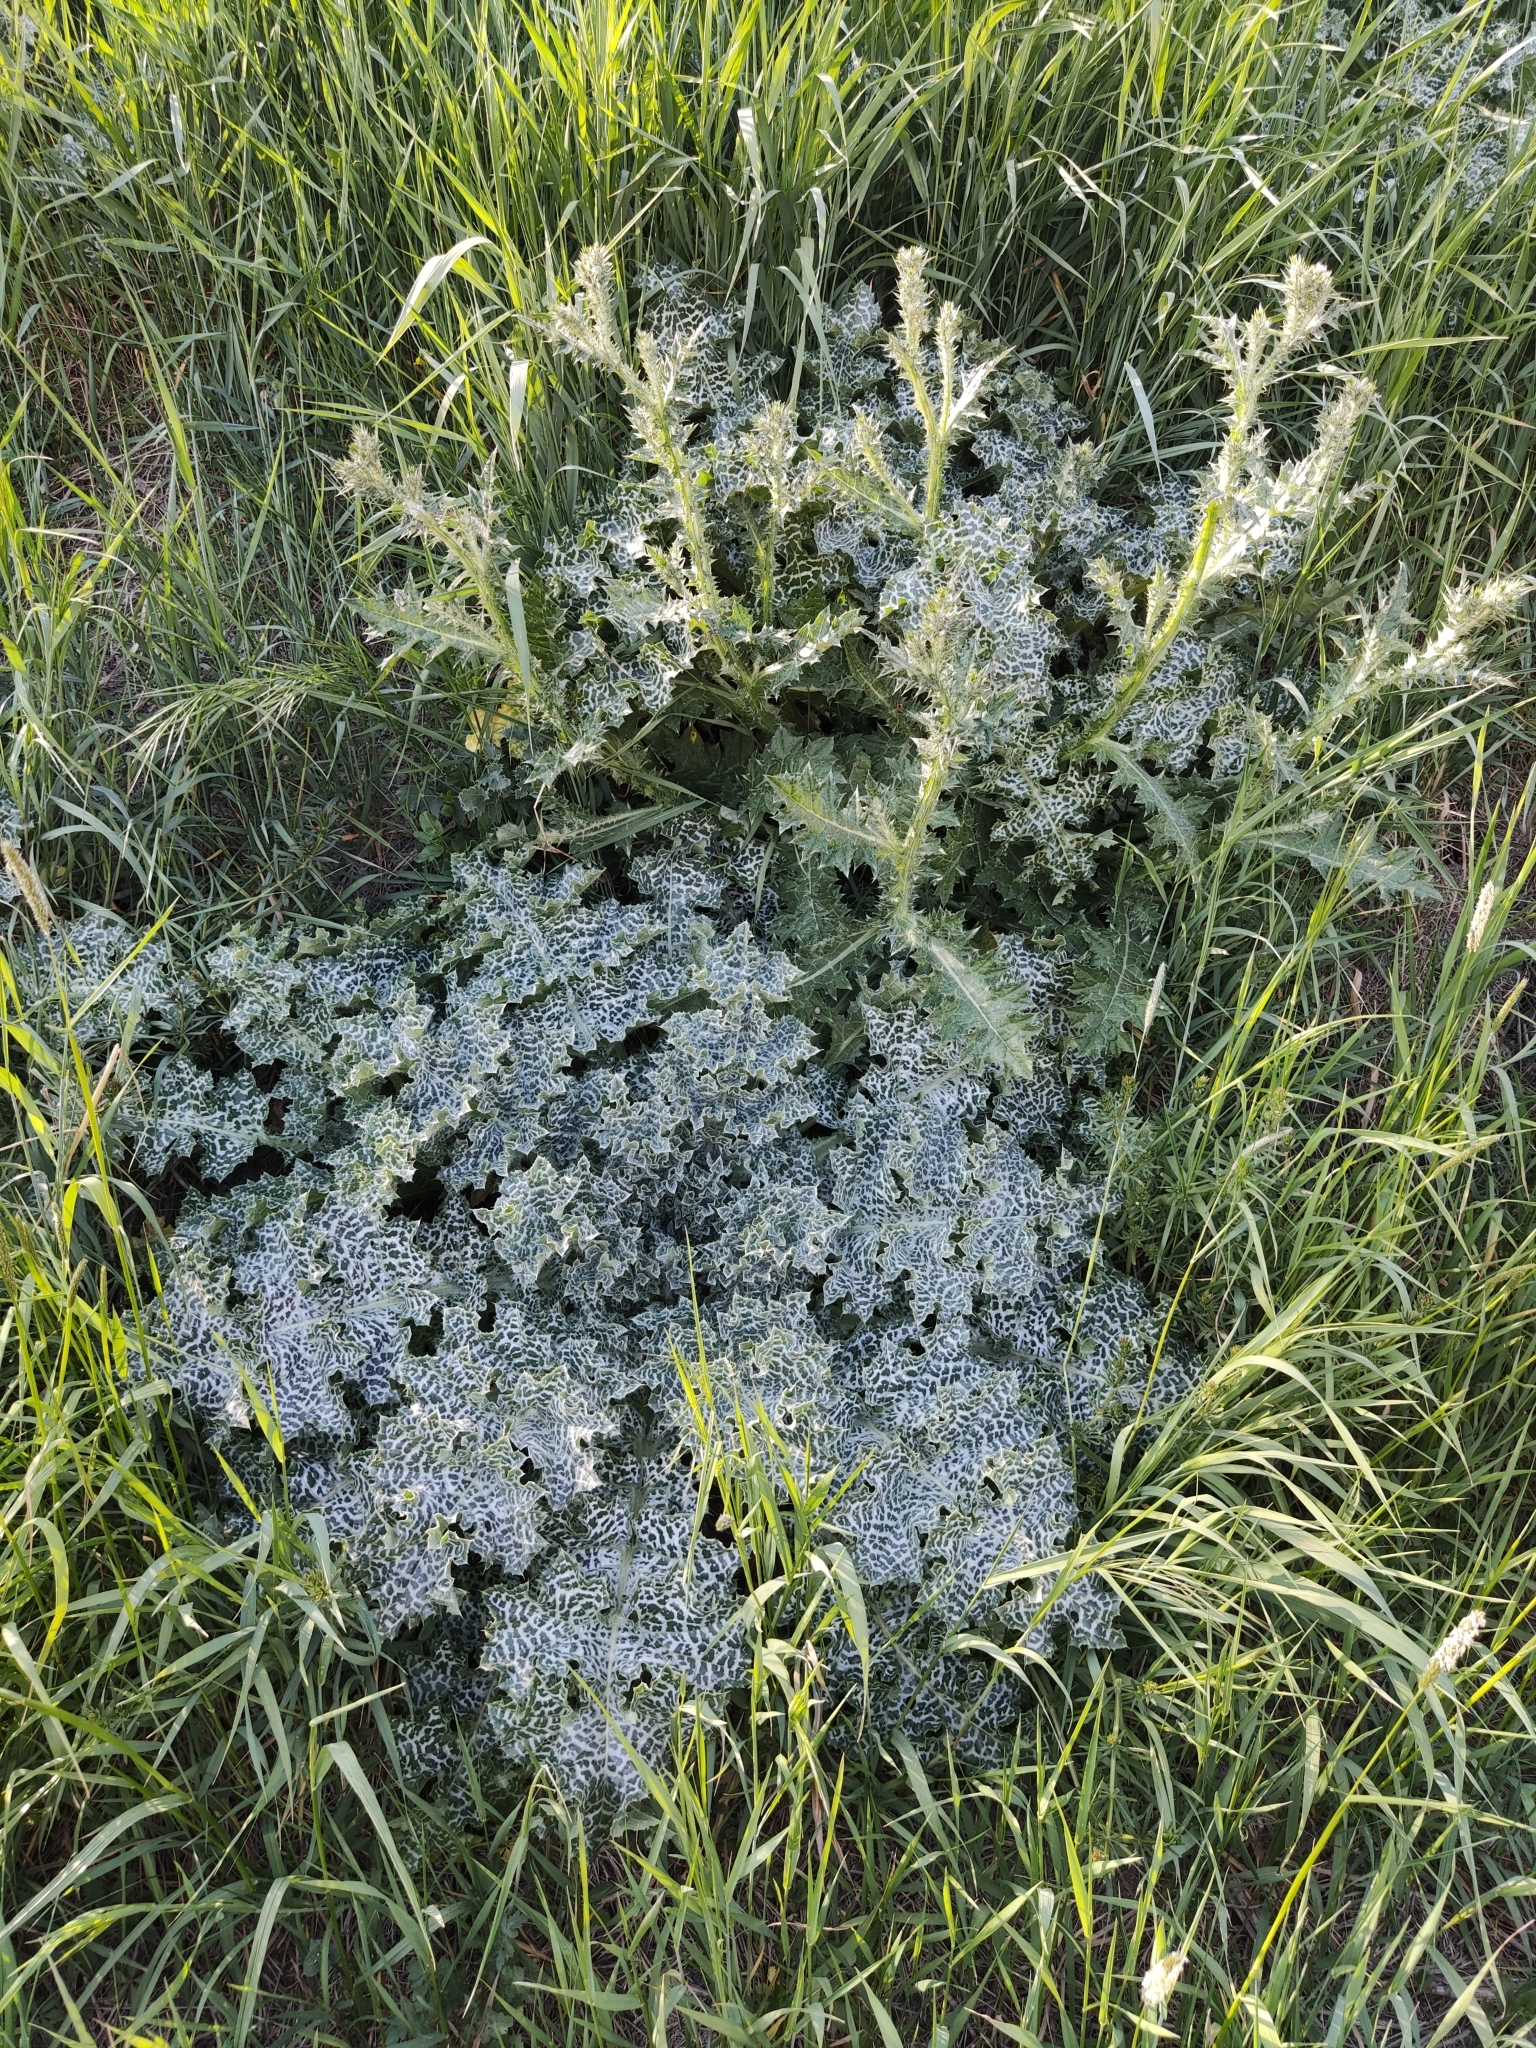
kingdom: Plantae
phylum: Tracheophyta
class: Magnoliopsida
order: Asterales
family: Asteraceae
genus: Silybum
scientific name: Silybum marianum
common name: Milk thistle
